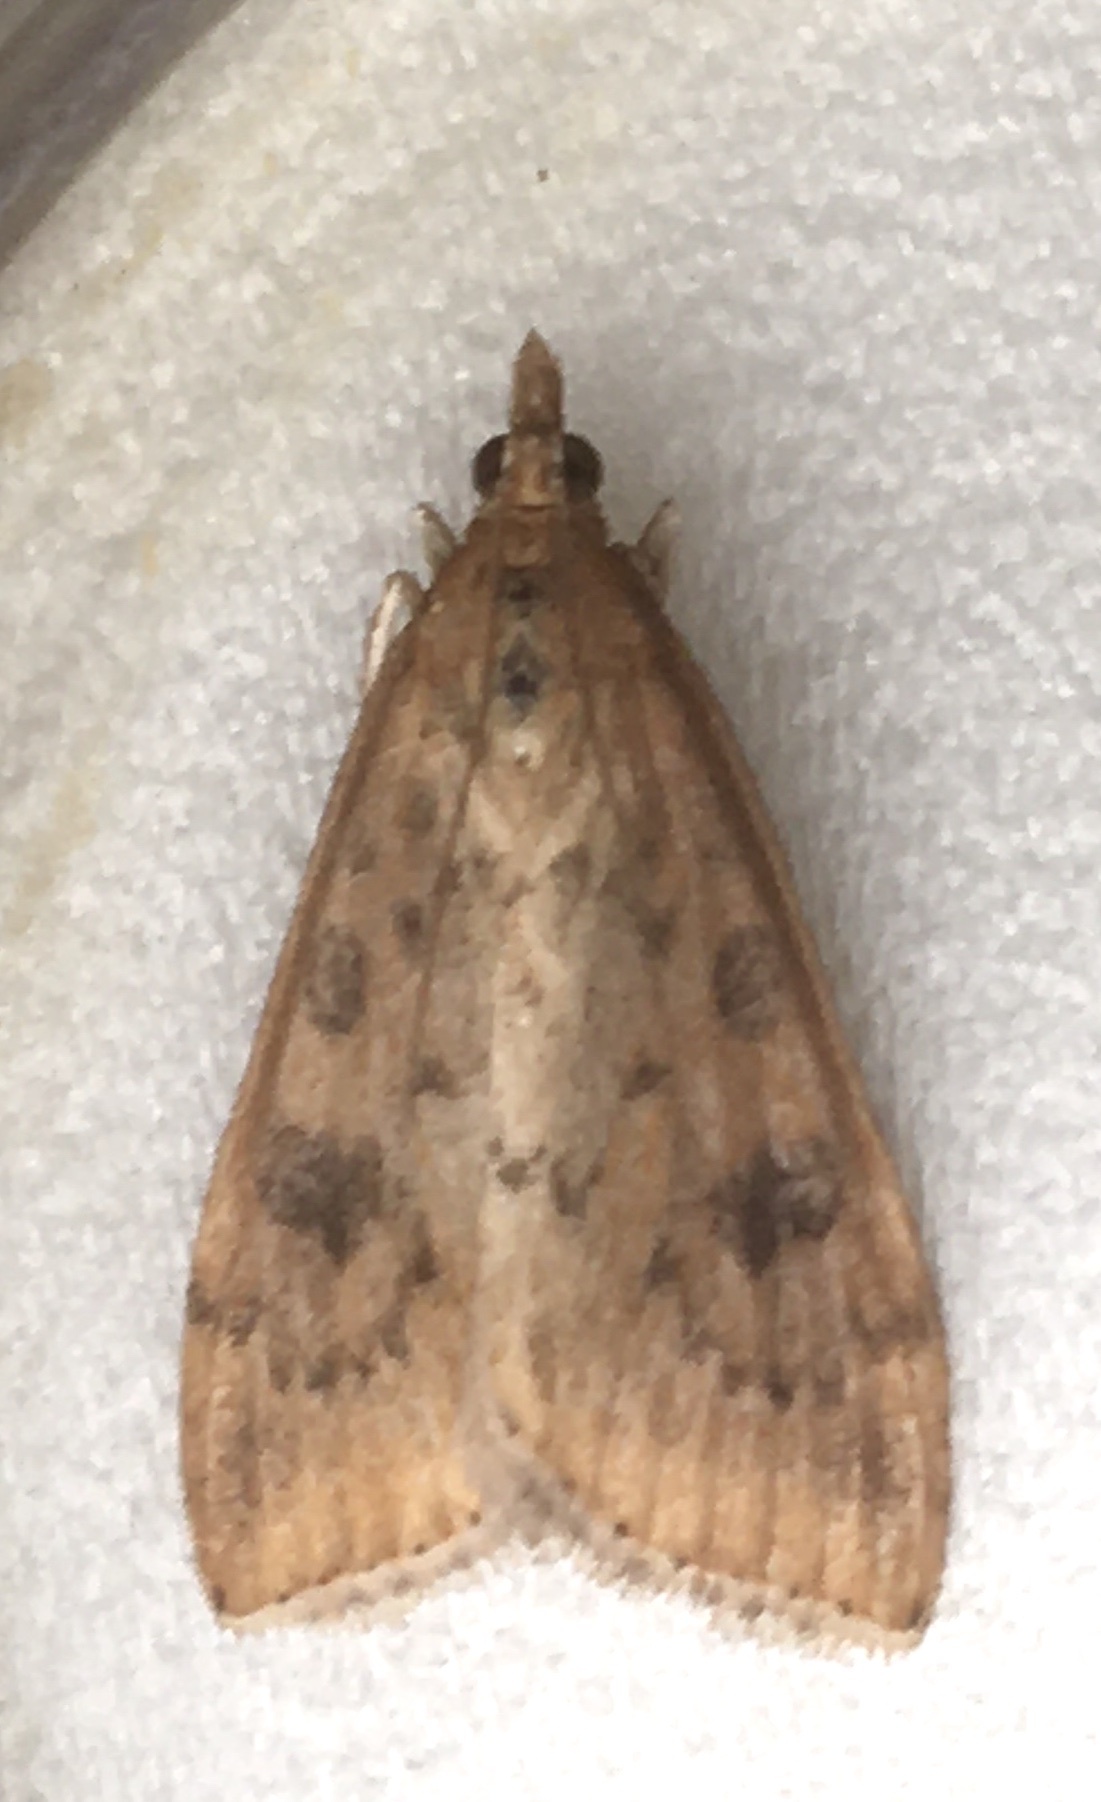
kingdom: Animalia
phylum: Arthropoda
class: Insecta
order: Lepidoptera
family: Crambidae
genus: Udea
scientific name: Udea ferrugalis
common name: Rusty dot
